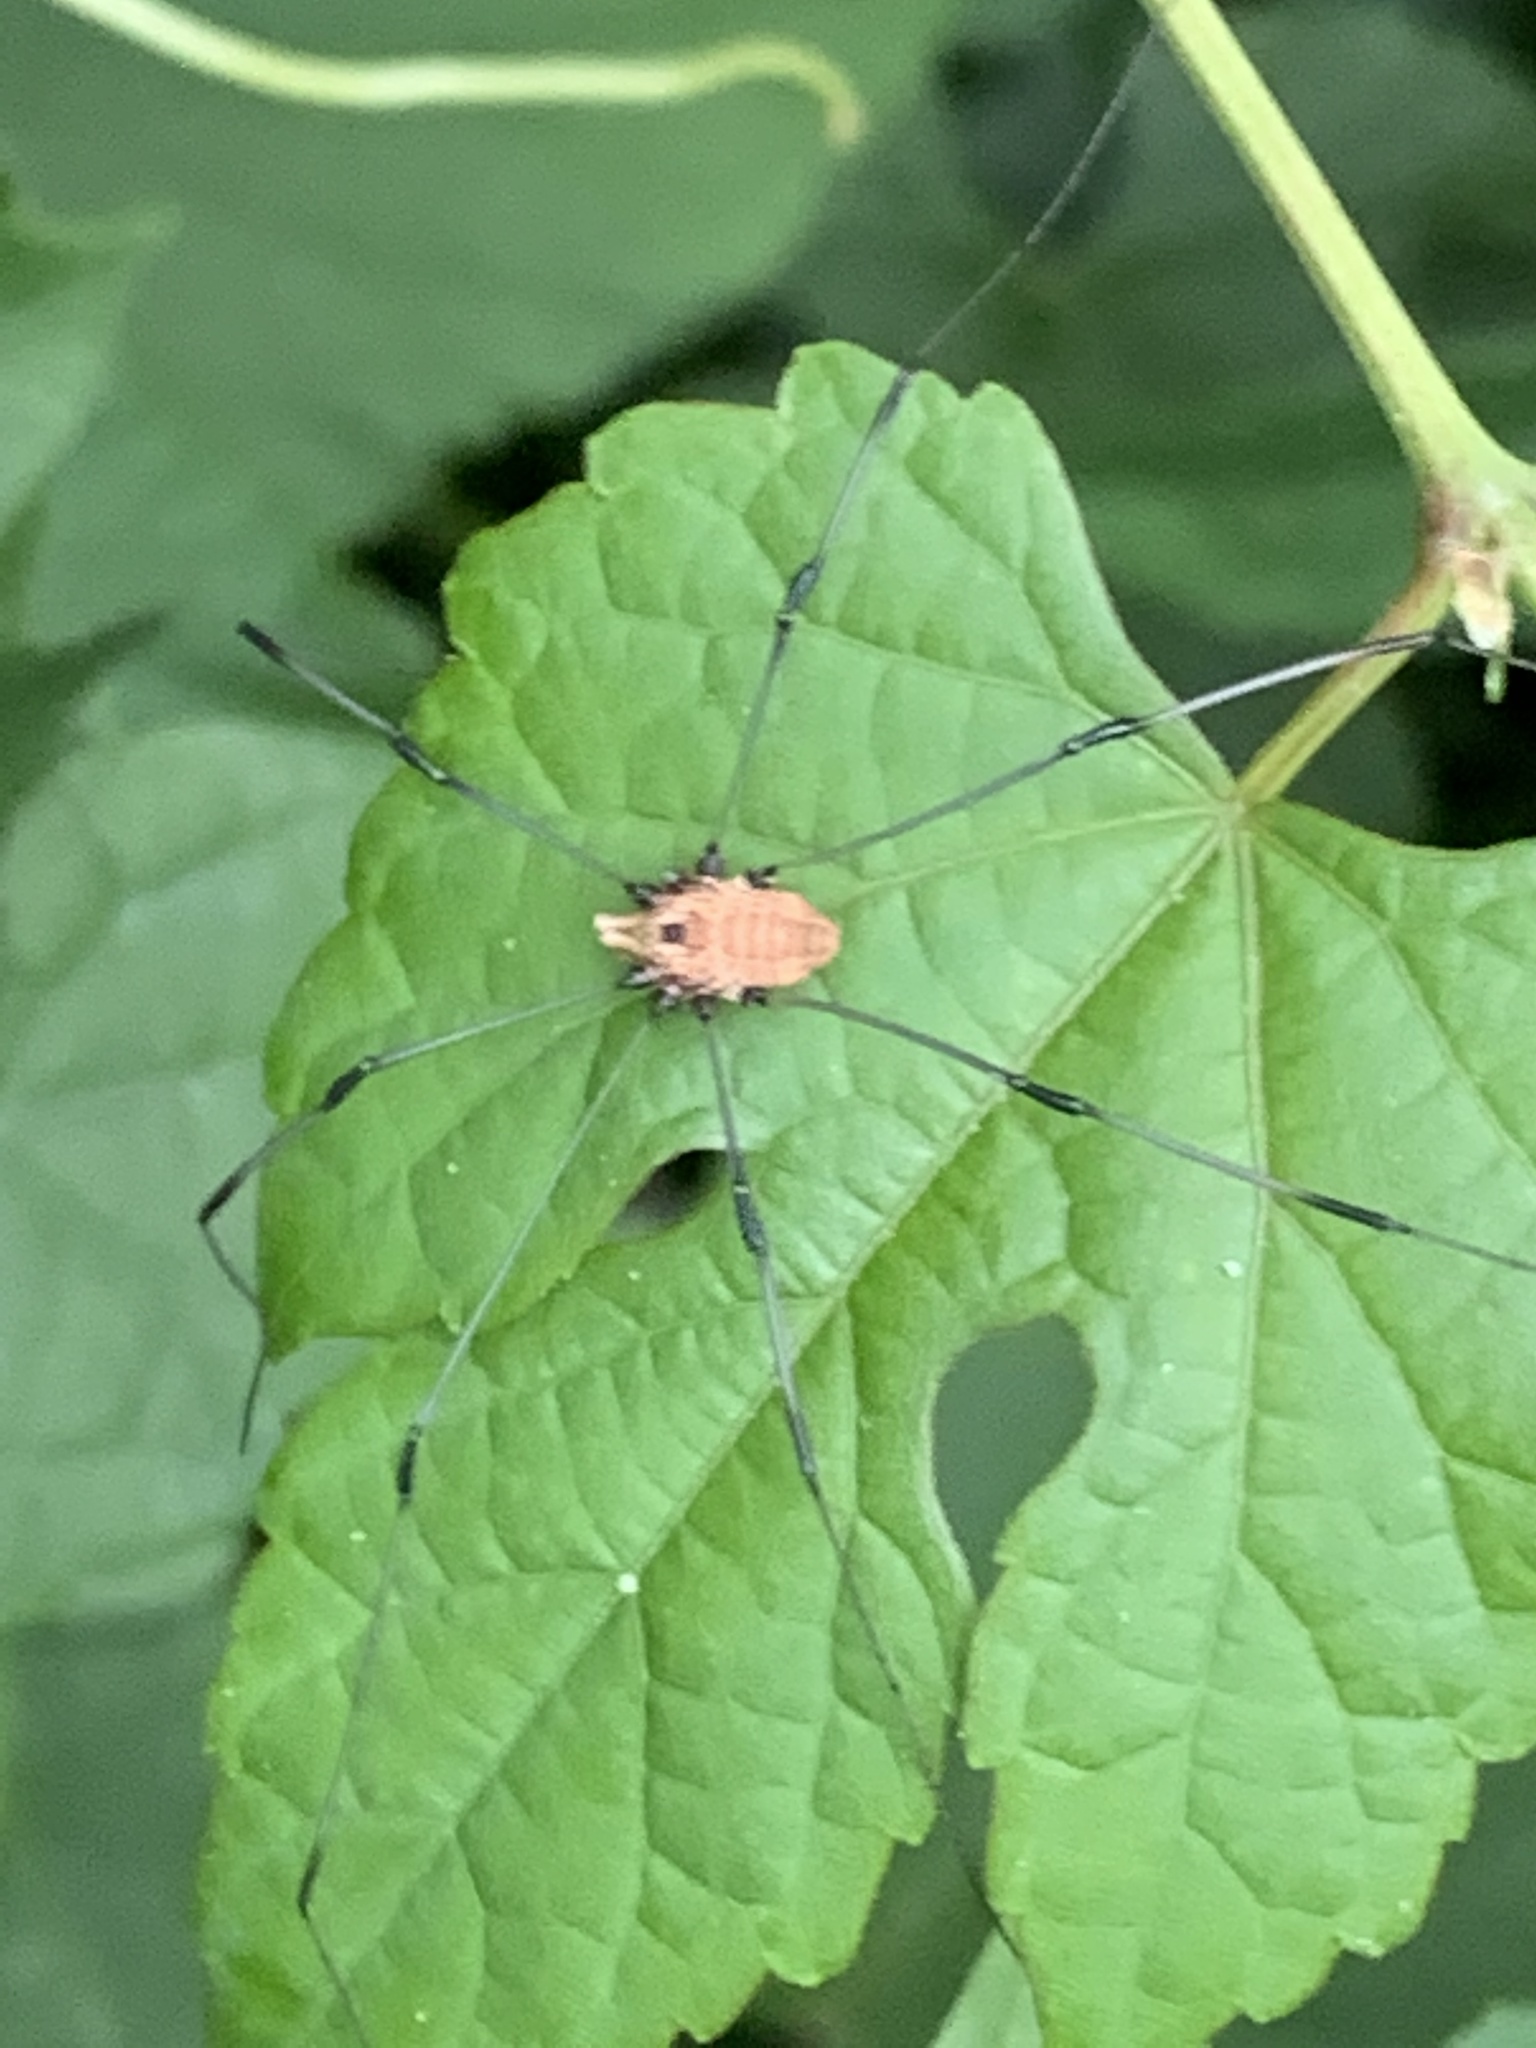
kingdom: Animalia
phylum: Arthropoda
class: Arachnida
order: Opiliones
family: Sclerosomatidae
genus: Leiobunum
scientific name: Leiobunum vittatum
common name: Eastern harvestman
